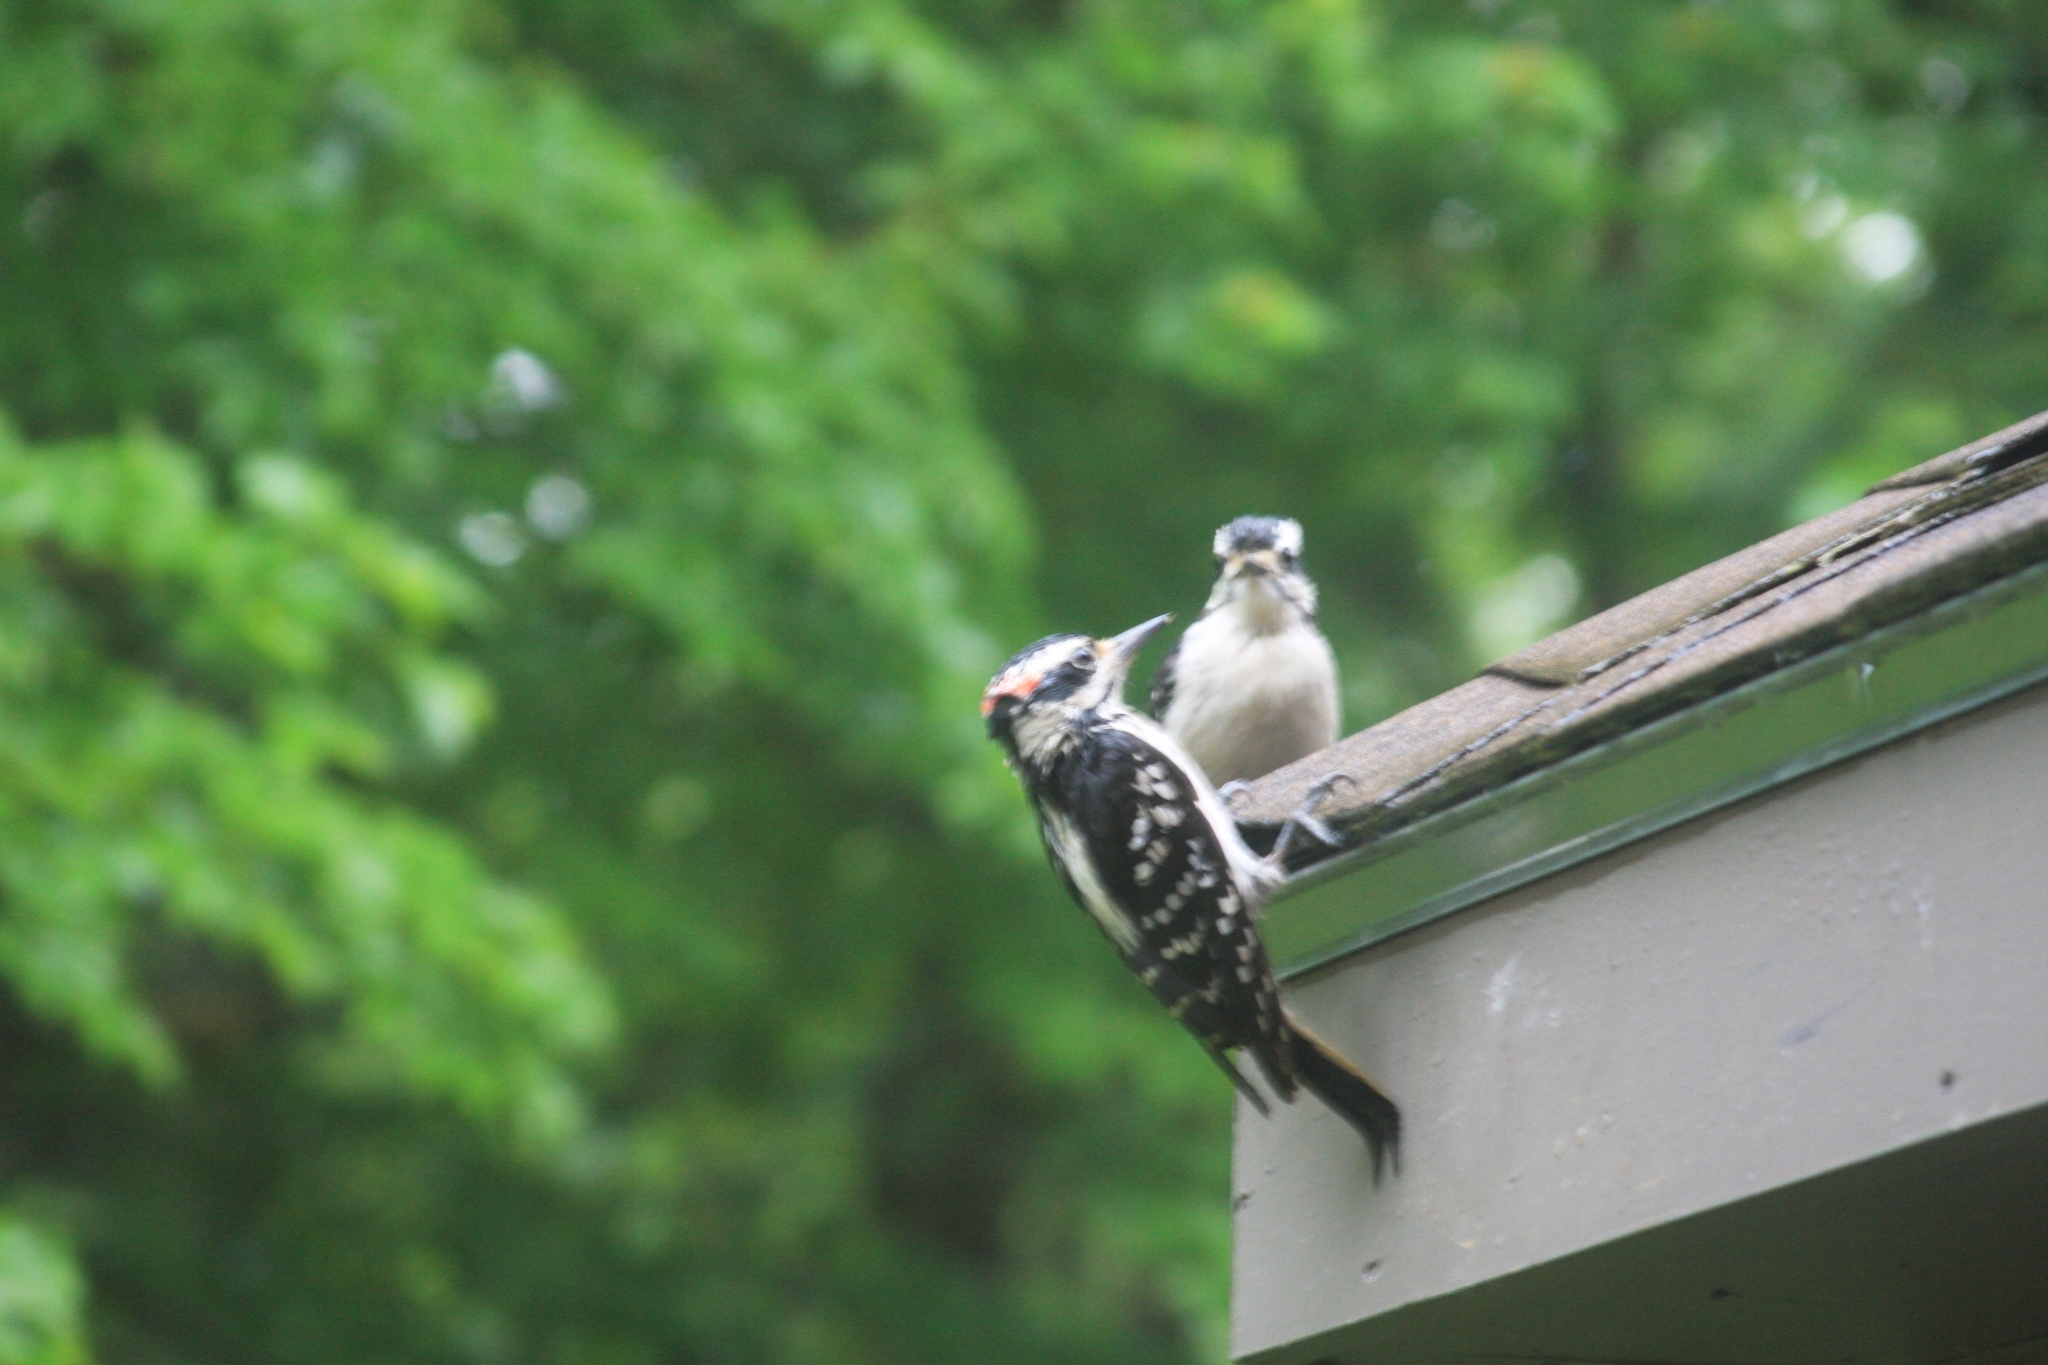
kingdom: Animalia
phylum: Chordata
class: Aves
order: Piciformes
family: Picidae
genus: Leuconotopicus
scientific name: Leuconotopicus villosus
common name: Hairy woodpecker
